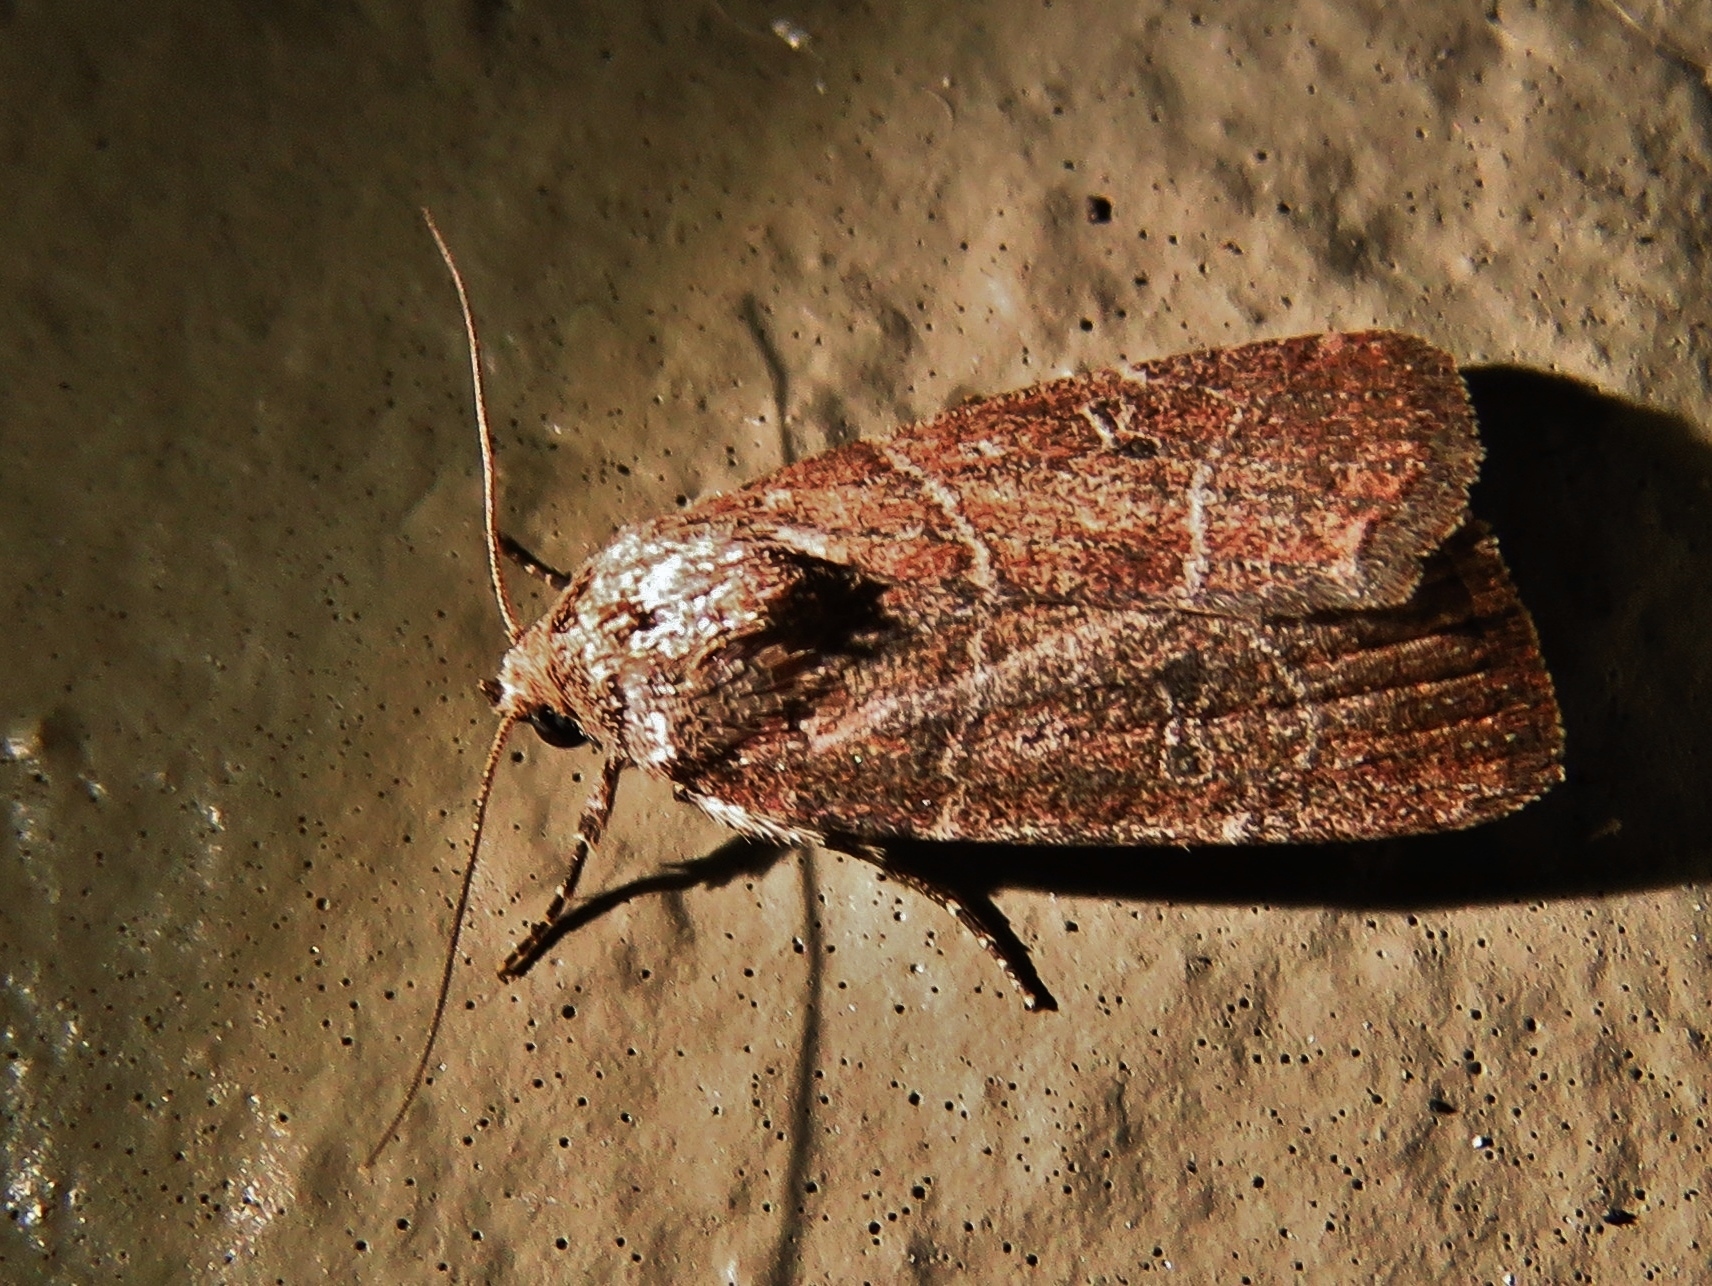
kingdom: Animalia
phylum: Arthropoda
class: Insecta
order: Lepidoptera
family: Noctuidae
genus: Elaphria
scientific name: Elaphria grata
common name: Grateful midget moth
